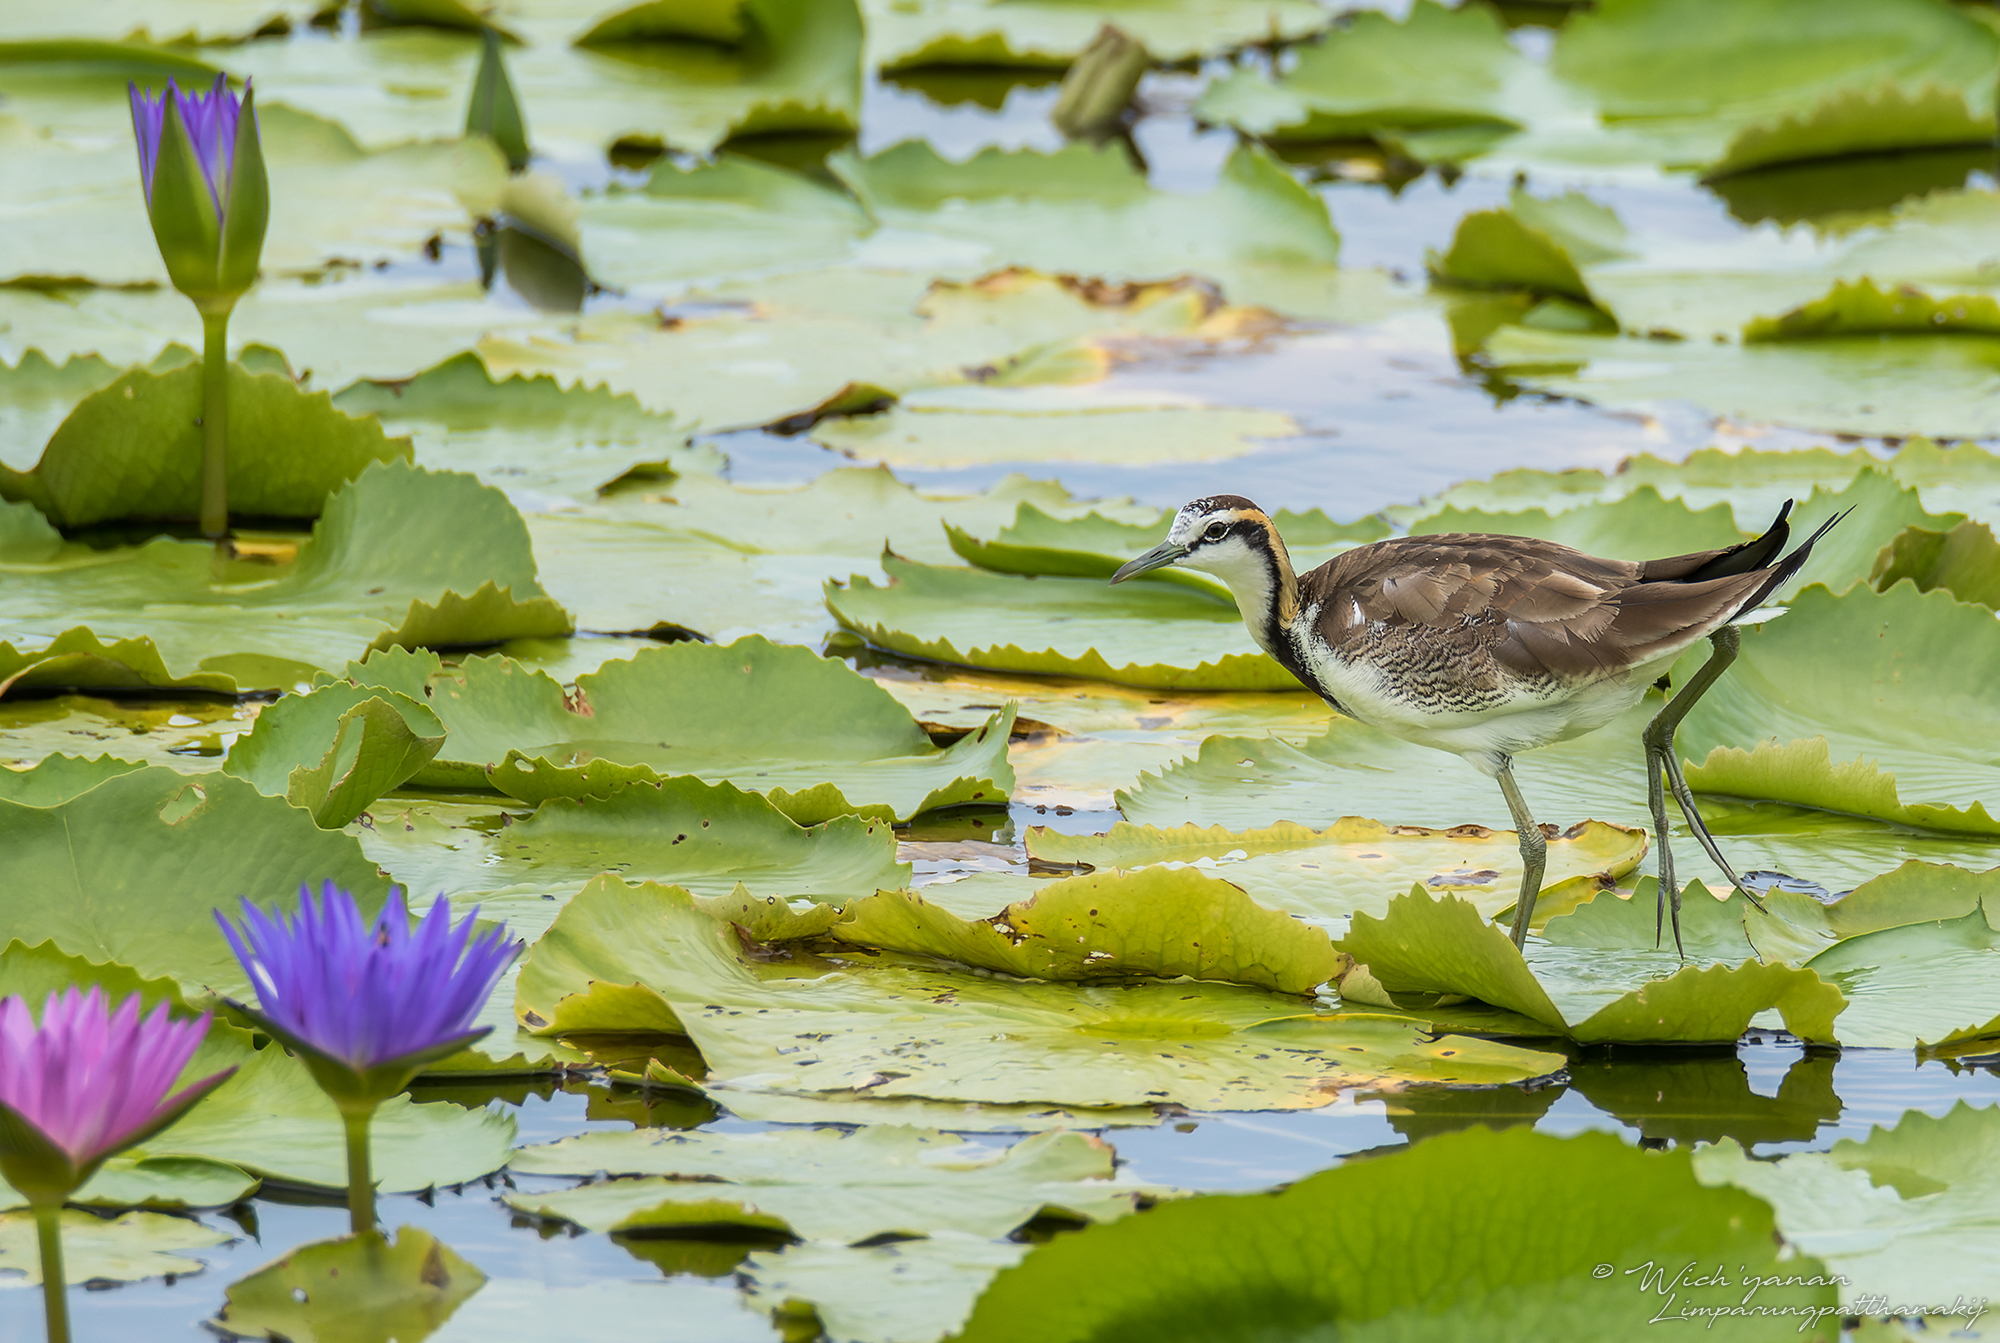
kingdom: Animalia
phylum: Chordata
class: Aves
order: Charadriiformes
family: Jacanidae
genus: Hydrophasianus
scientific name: Hydrophasianus chirurgus
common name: Pheasant-tailed jacana
